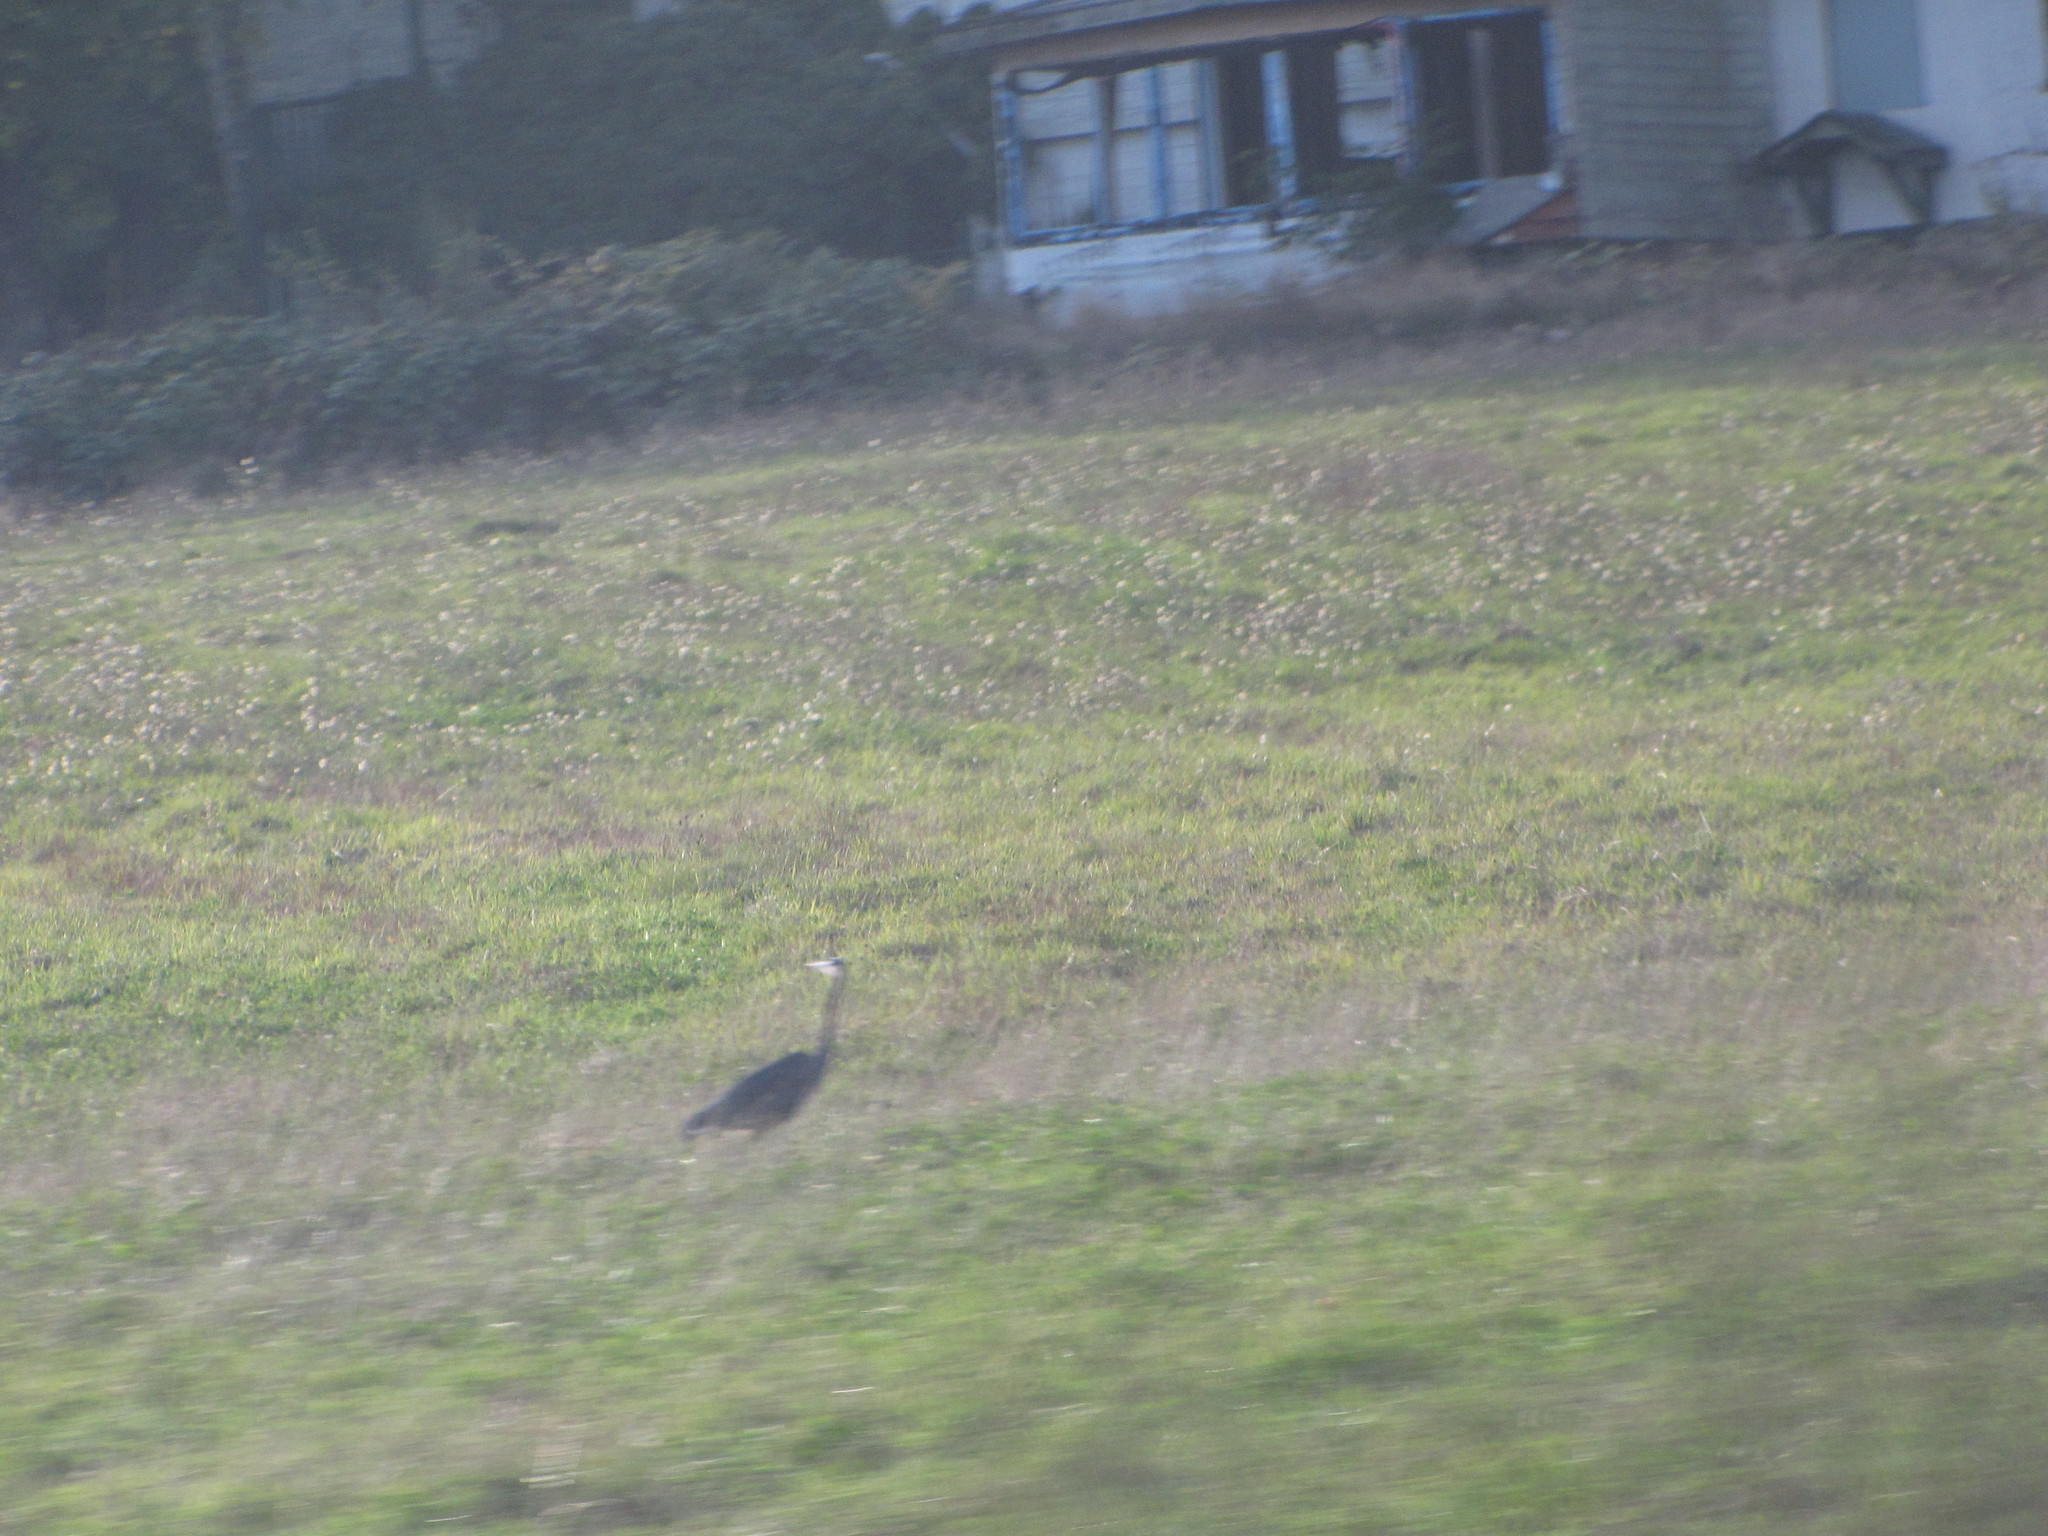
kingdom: Animalia
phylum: Chordata
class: Aves
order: Pelecaniformes
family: Ardeidae
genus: Ardea
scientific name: Ardea herodias
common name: Great blue heron
